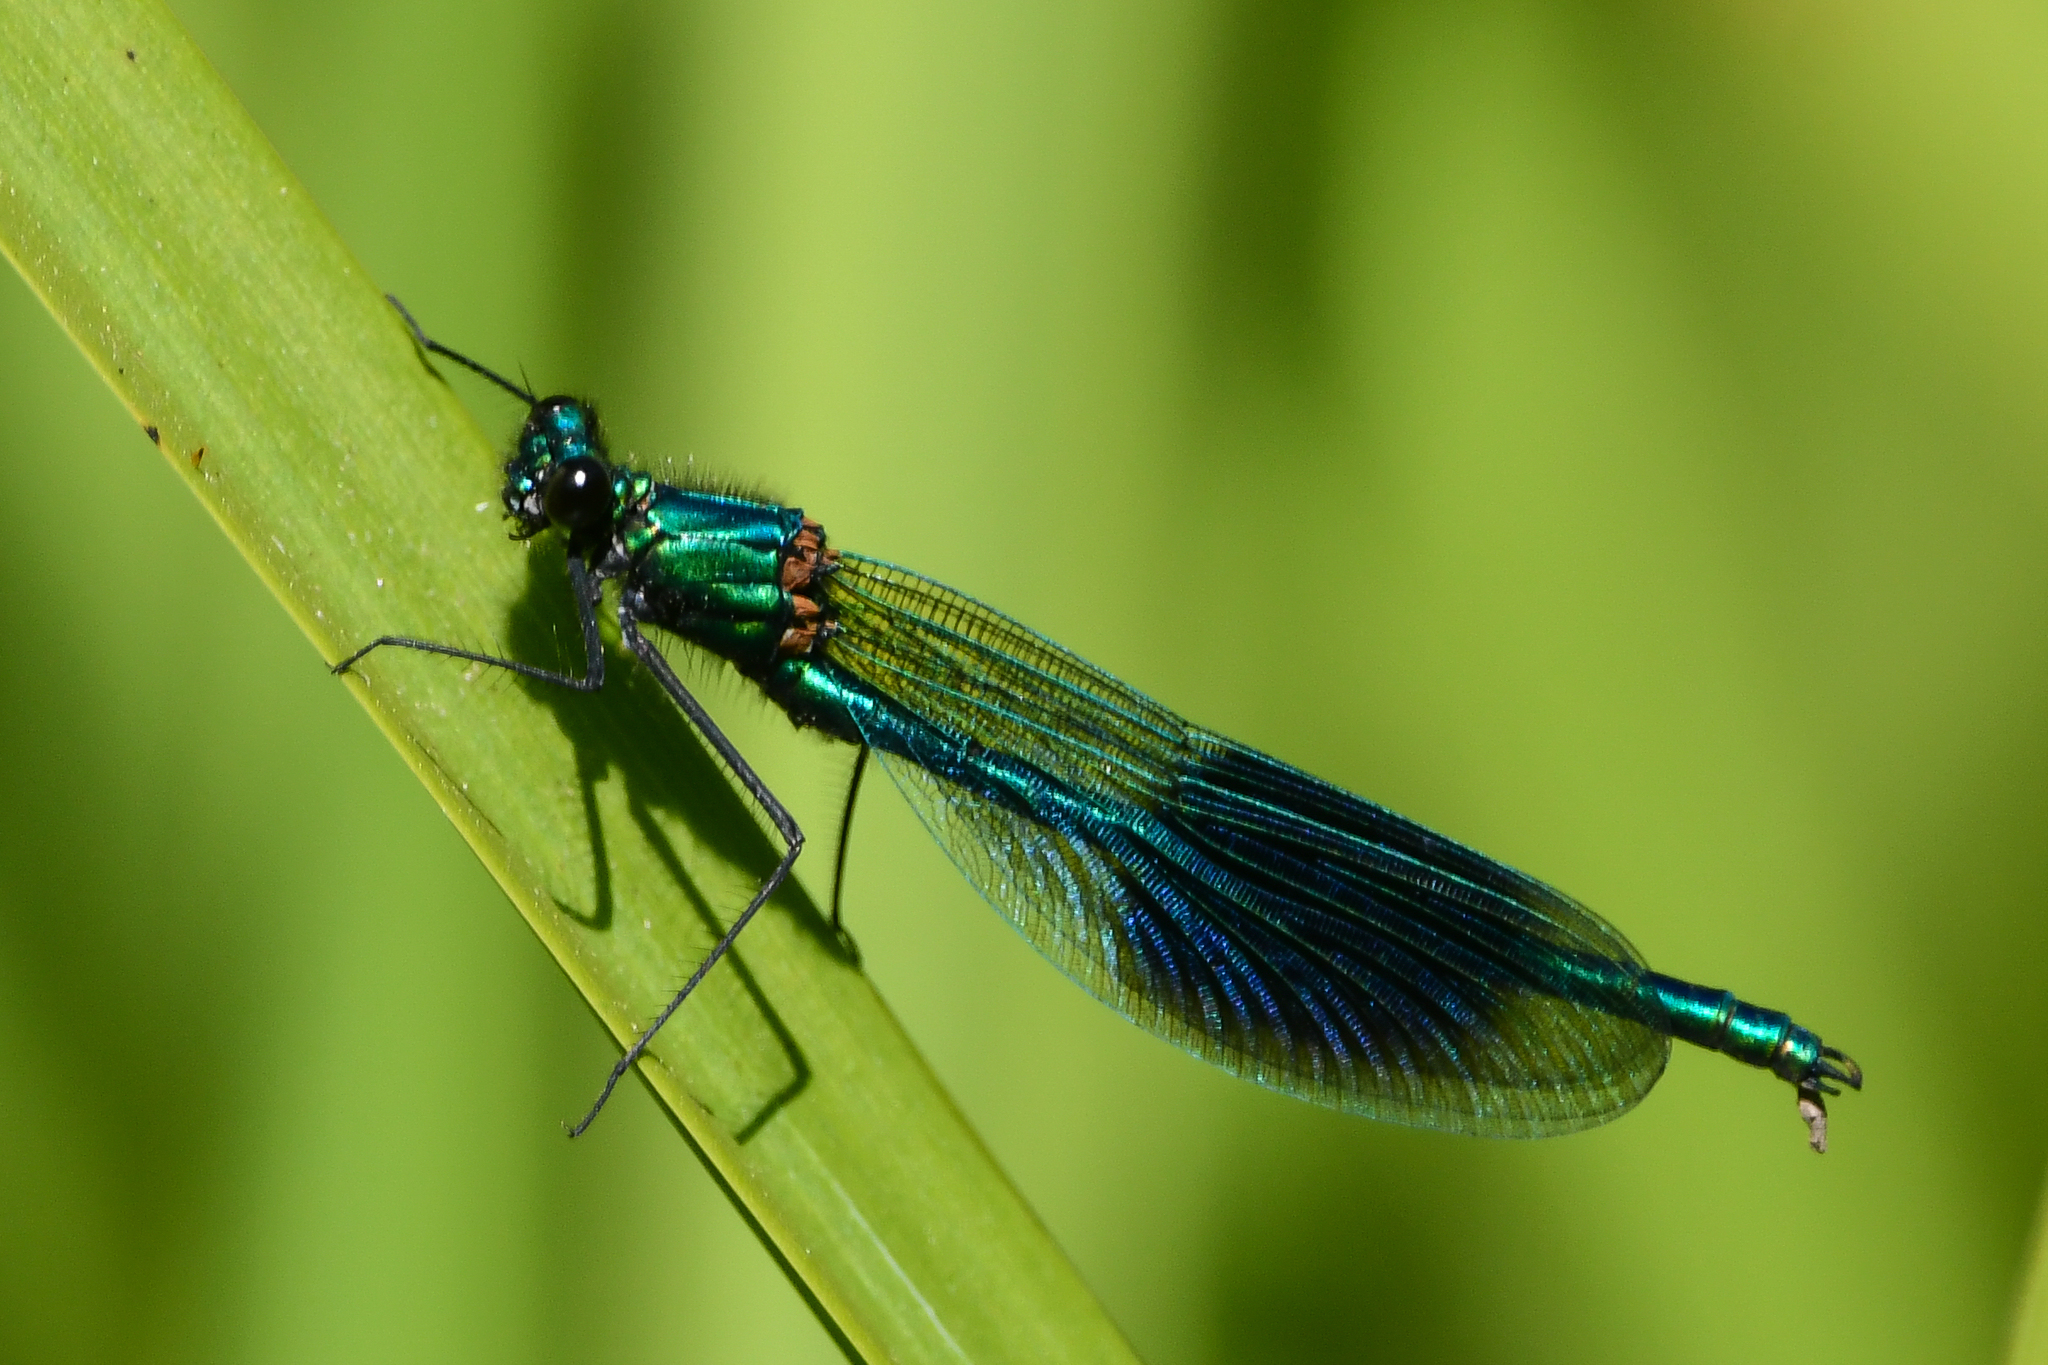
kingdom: Animalia
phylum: Arthropoda
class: Insecta
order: Odonata
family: Calopterygidae
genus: Calopteryx
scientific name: Calopteryx splendens
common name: Banded demoiselle
